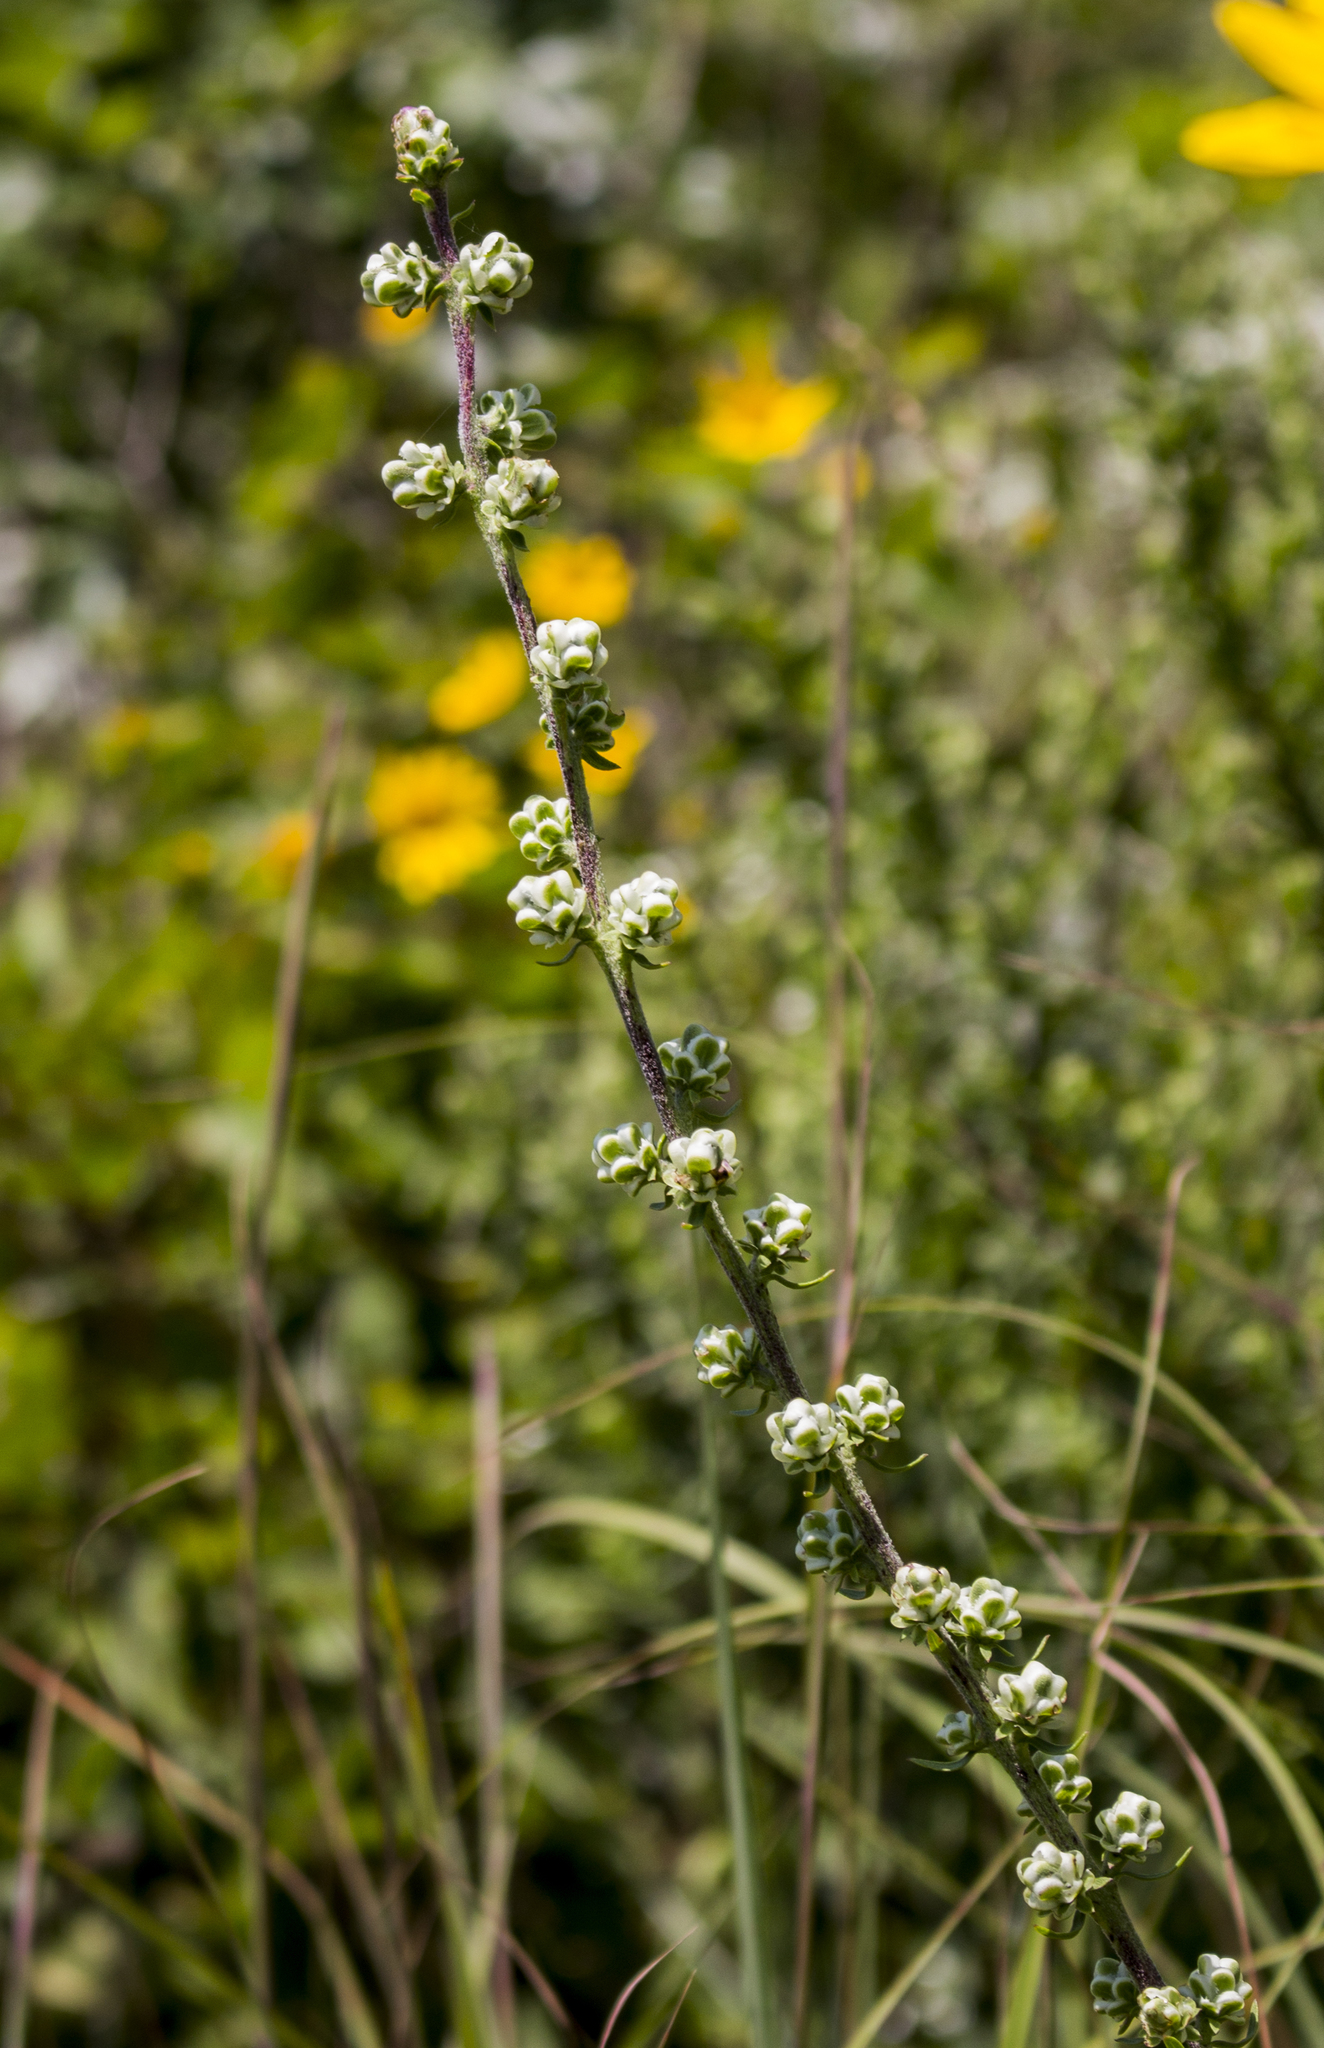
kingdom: Plantae
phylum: Tracheophyta
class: Magnoliopsida
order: Asterales
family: Asteraceae
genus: Liatris
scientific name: Liatris aspera
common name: Lacerate blazing-star
